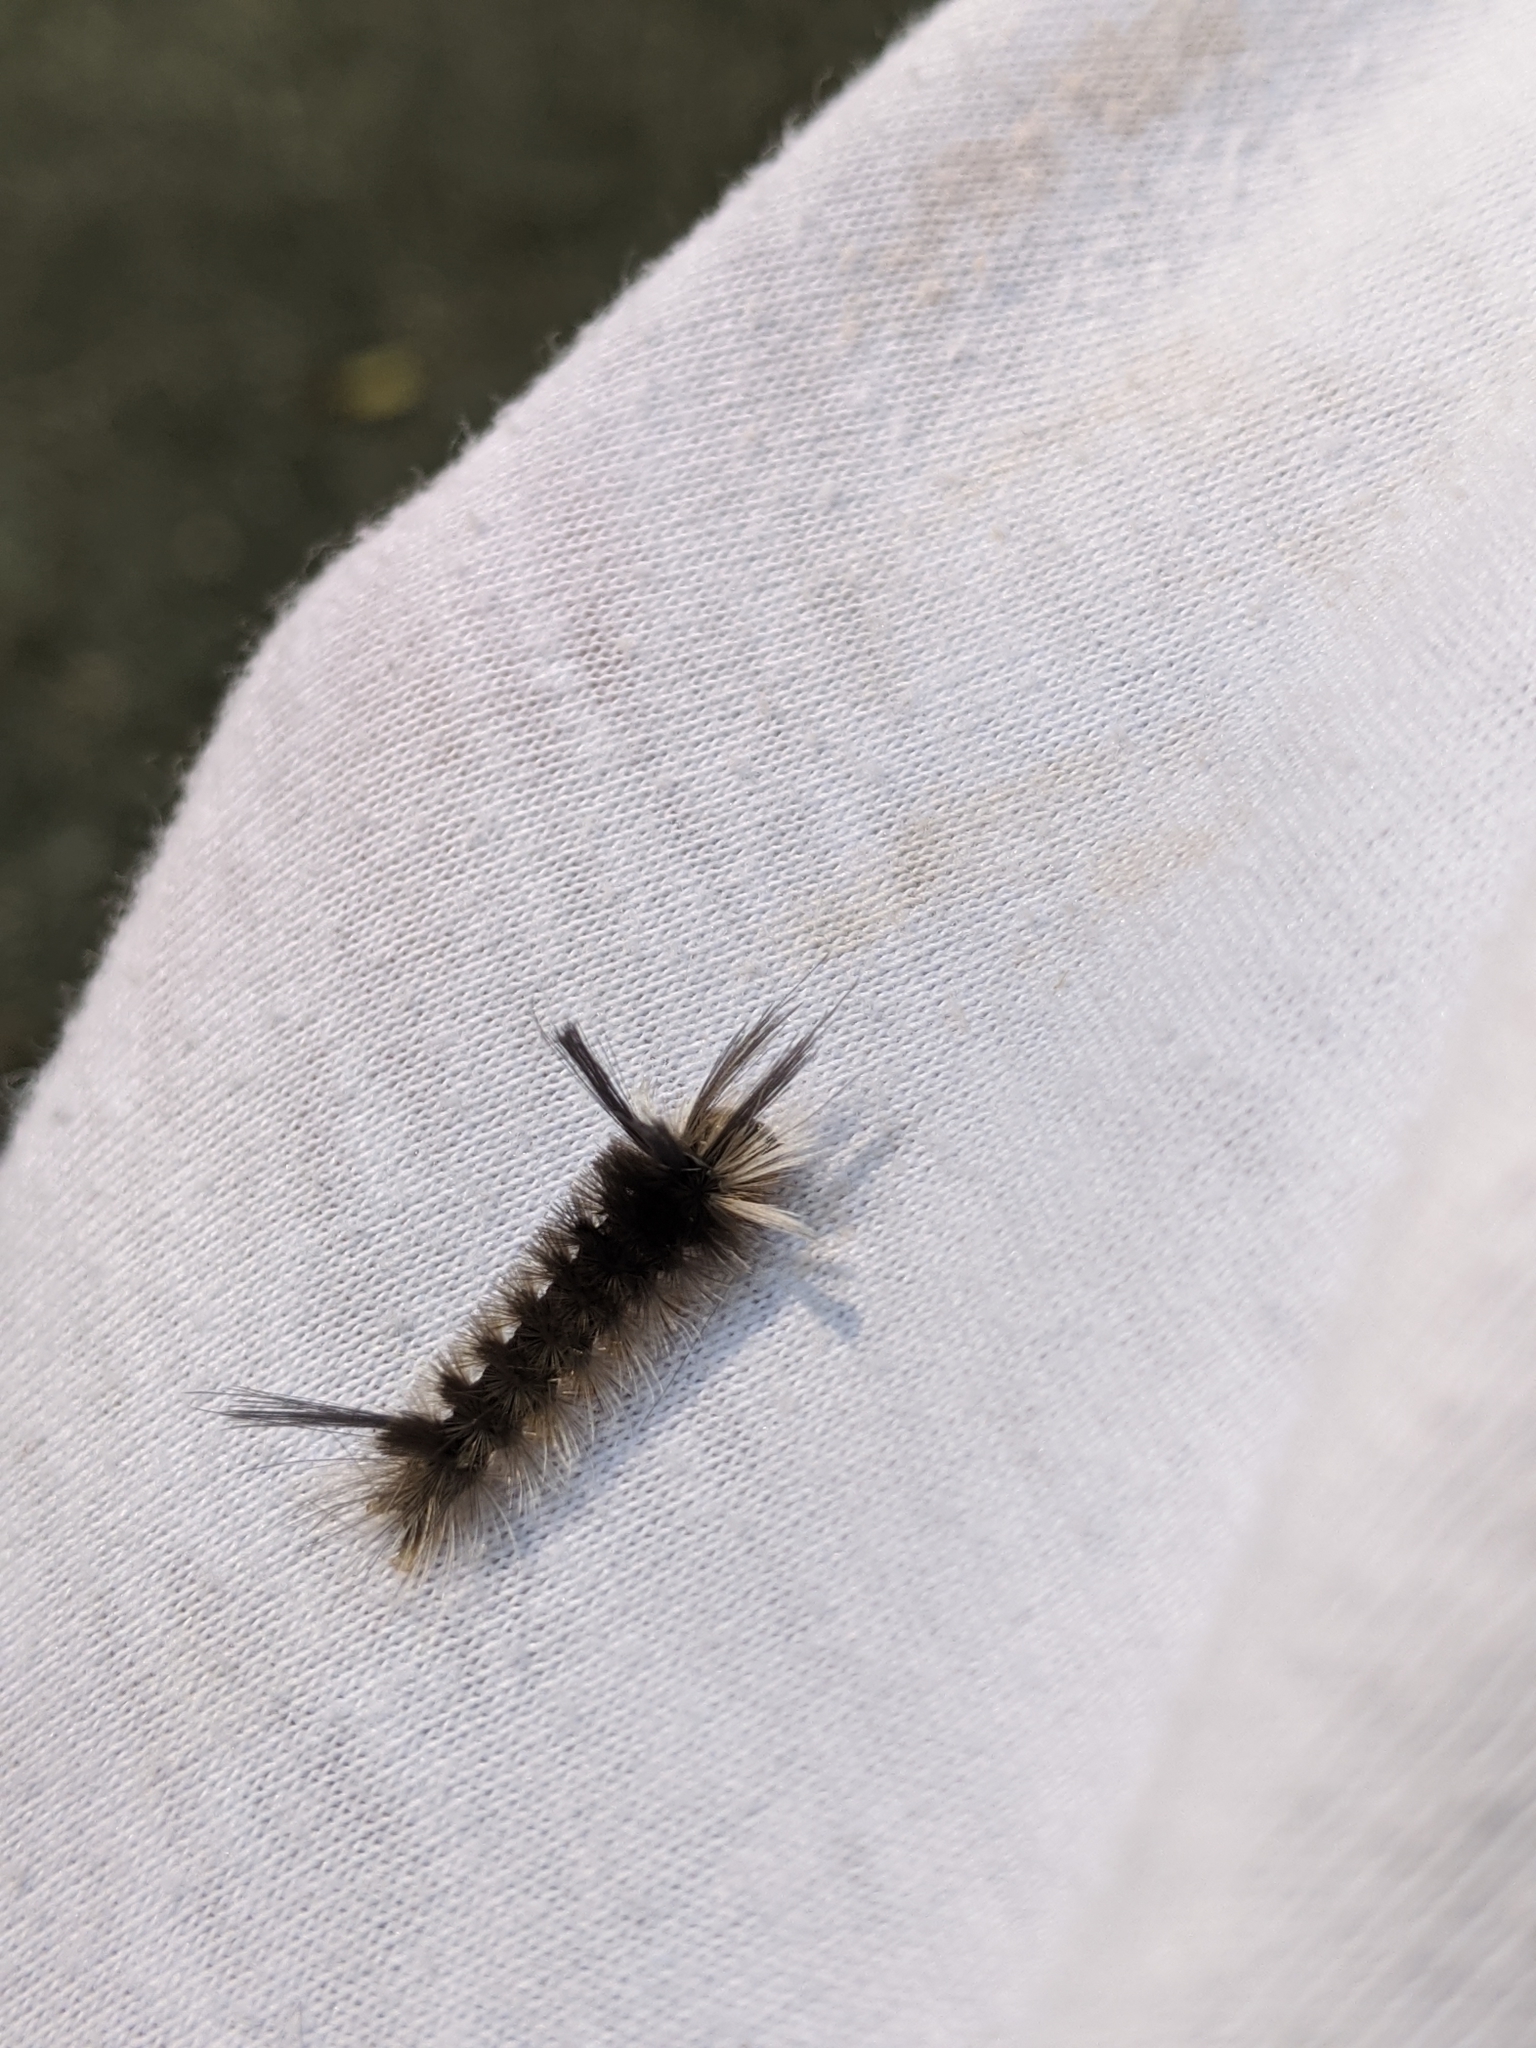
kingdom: Animalia
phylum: Arthropoda
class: Insecta
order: Lepidoptera
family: Erebidae
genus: Halysidota
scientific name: Halysidota tessellaris
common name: Banded tussock moth
